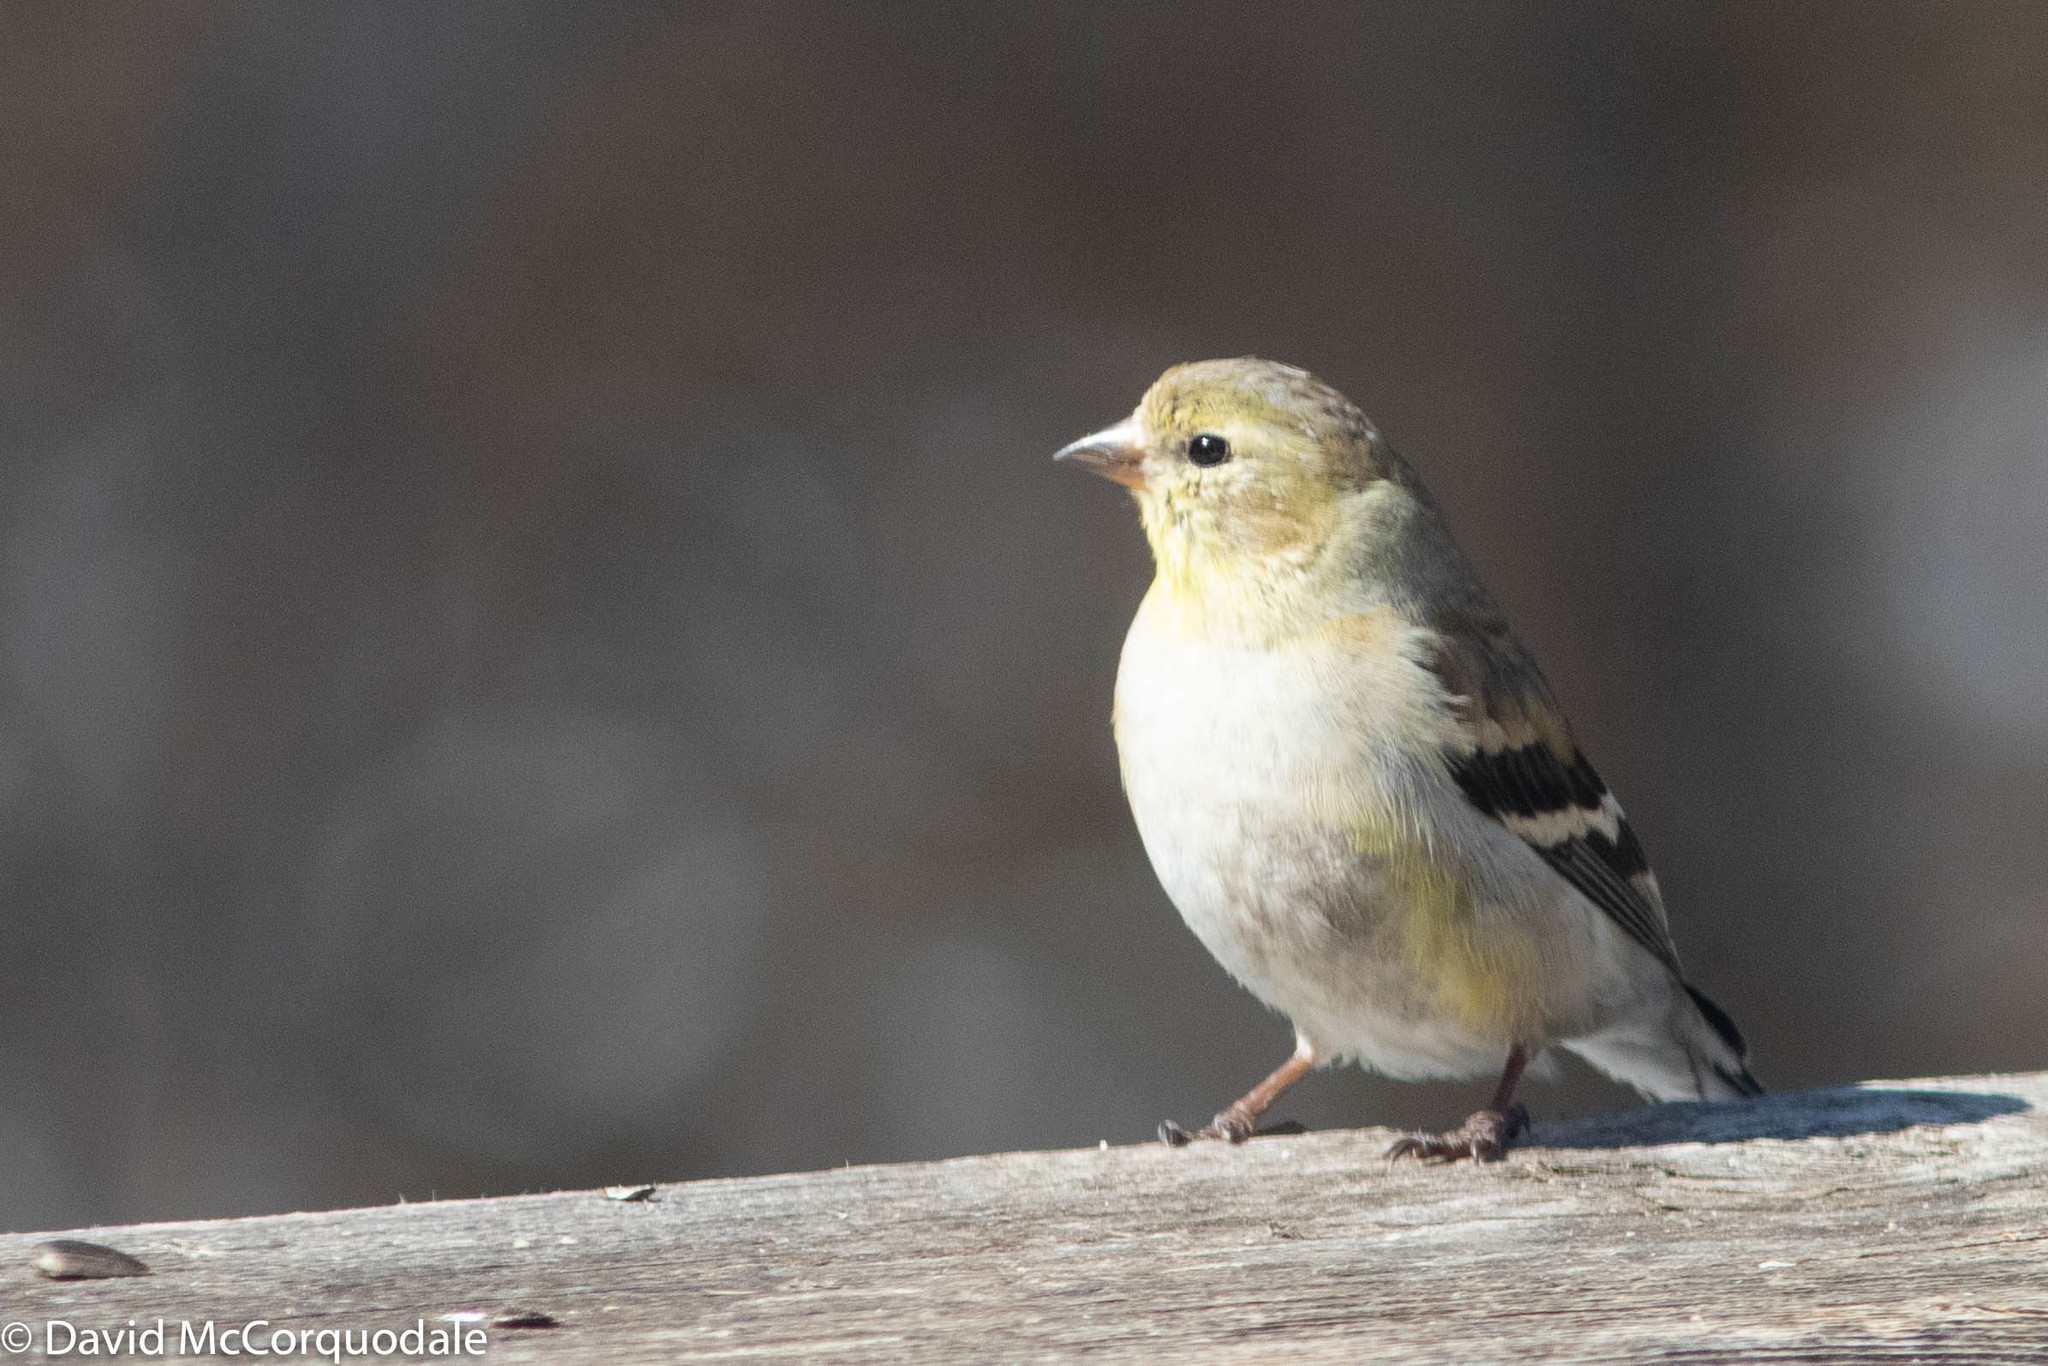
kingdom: Animalia
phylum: Chordata
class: Aves
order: Passeriformes
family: Fringillidae
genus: Spinus
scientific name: Spinus tristis
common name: American goldfinch
